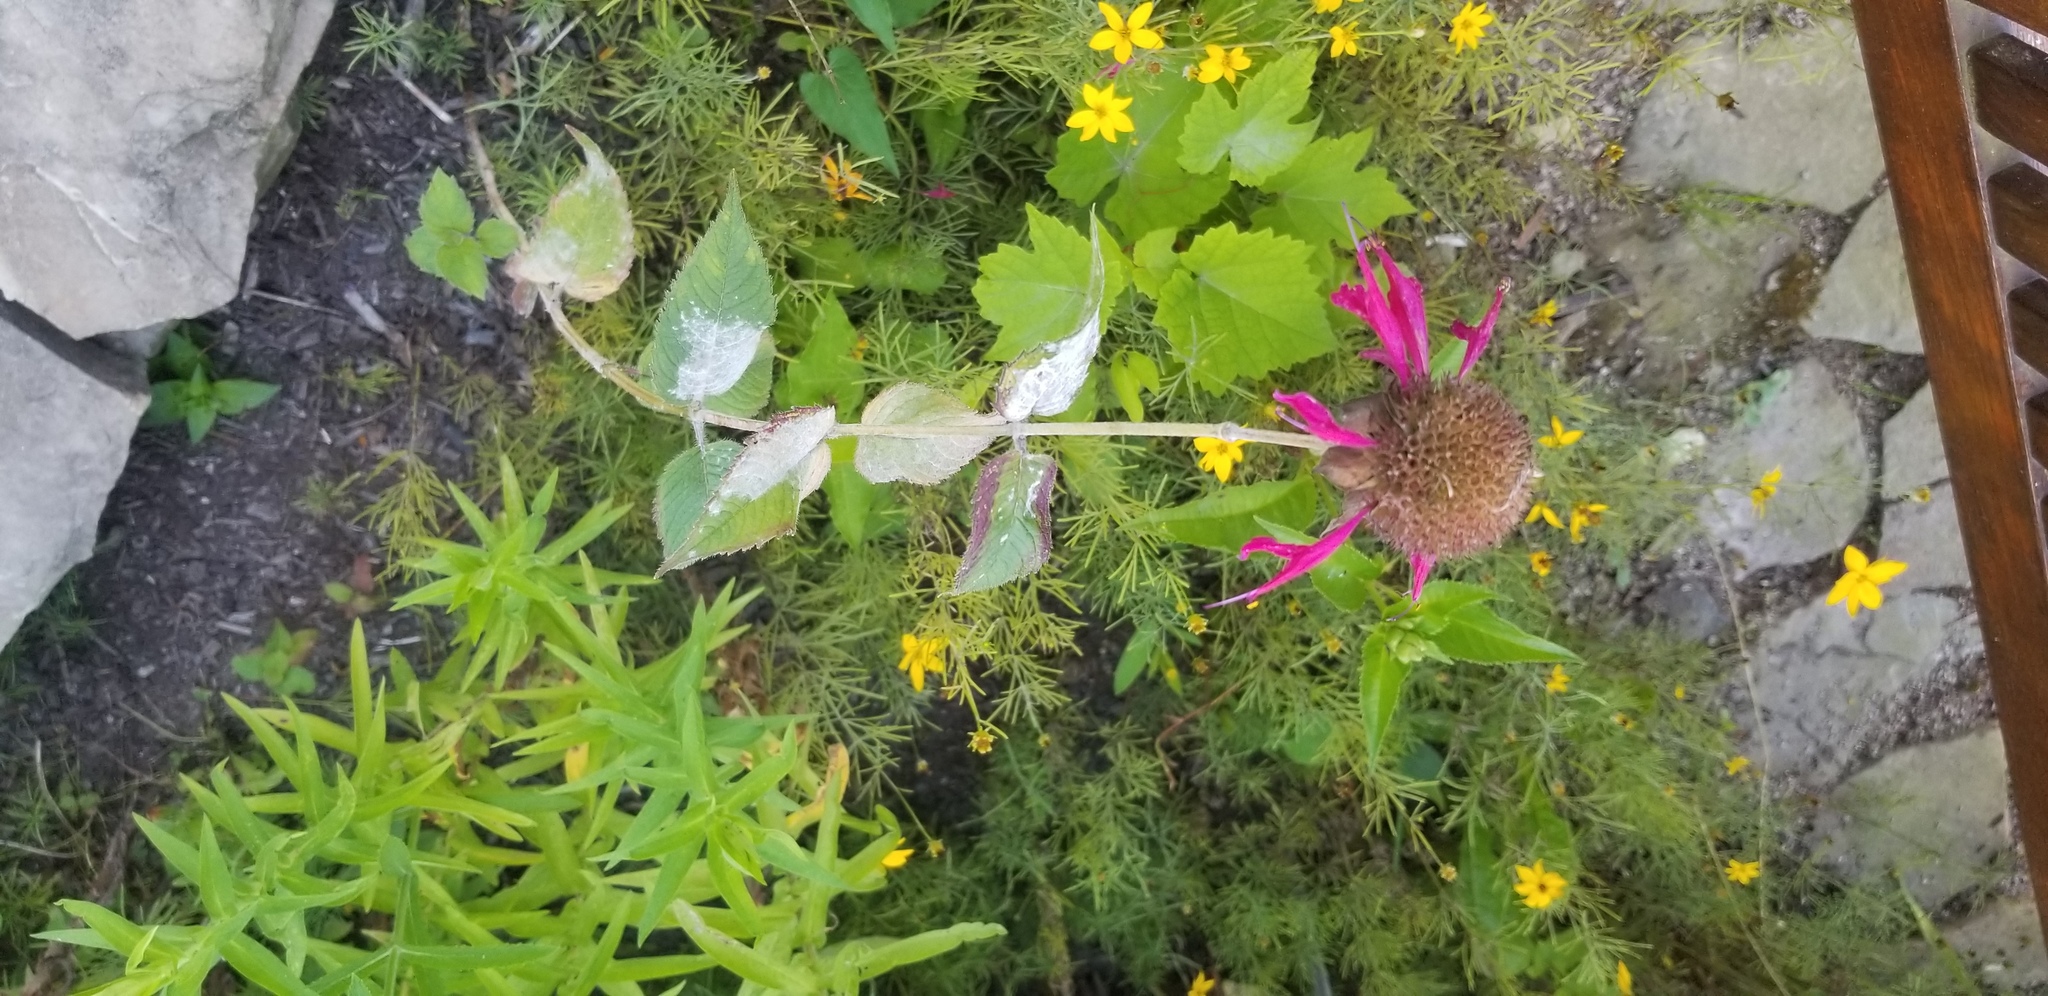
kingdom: Fungi
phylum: Ascomycota
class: Leotiomycetes
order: Helotiales
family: Erysiphaceae
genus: Golovinomyces
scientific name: Golovinomyces monardae
